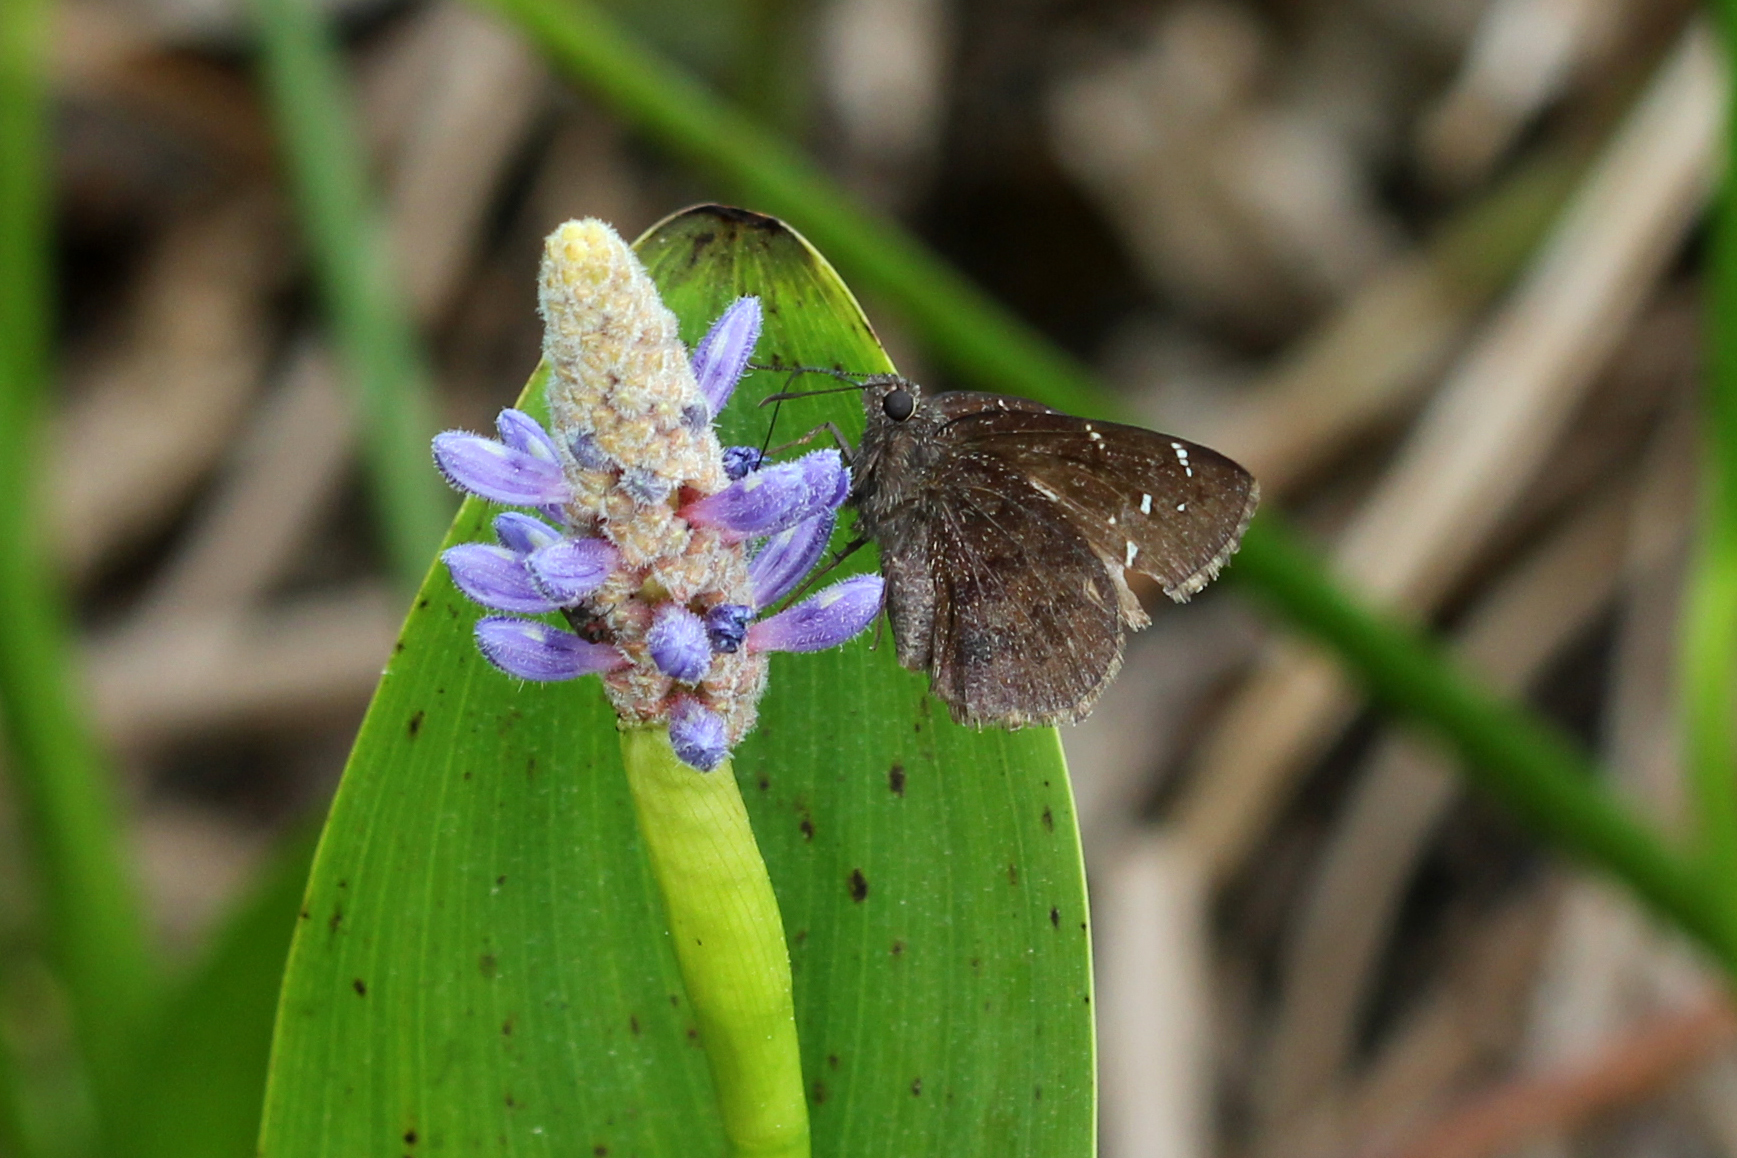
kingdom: Animalia
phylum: Arthropoda
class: Insecta
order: Lepidoptera
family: Hesperiidae
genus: Thorybes
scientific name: Thorybes pylades
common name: Northern cloudywing
